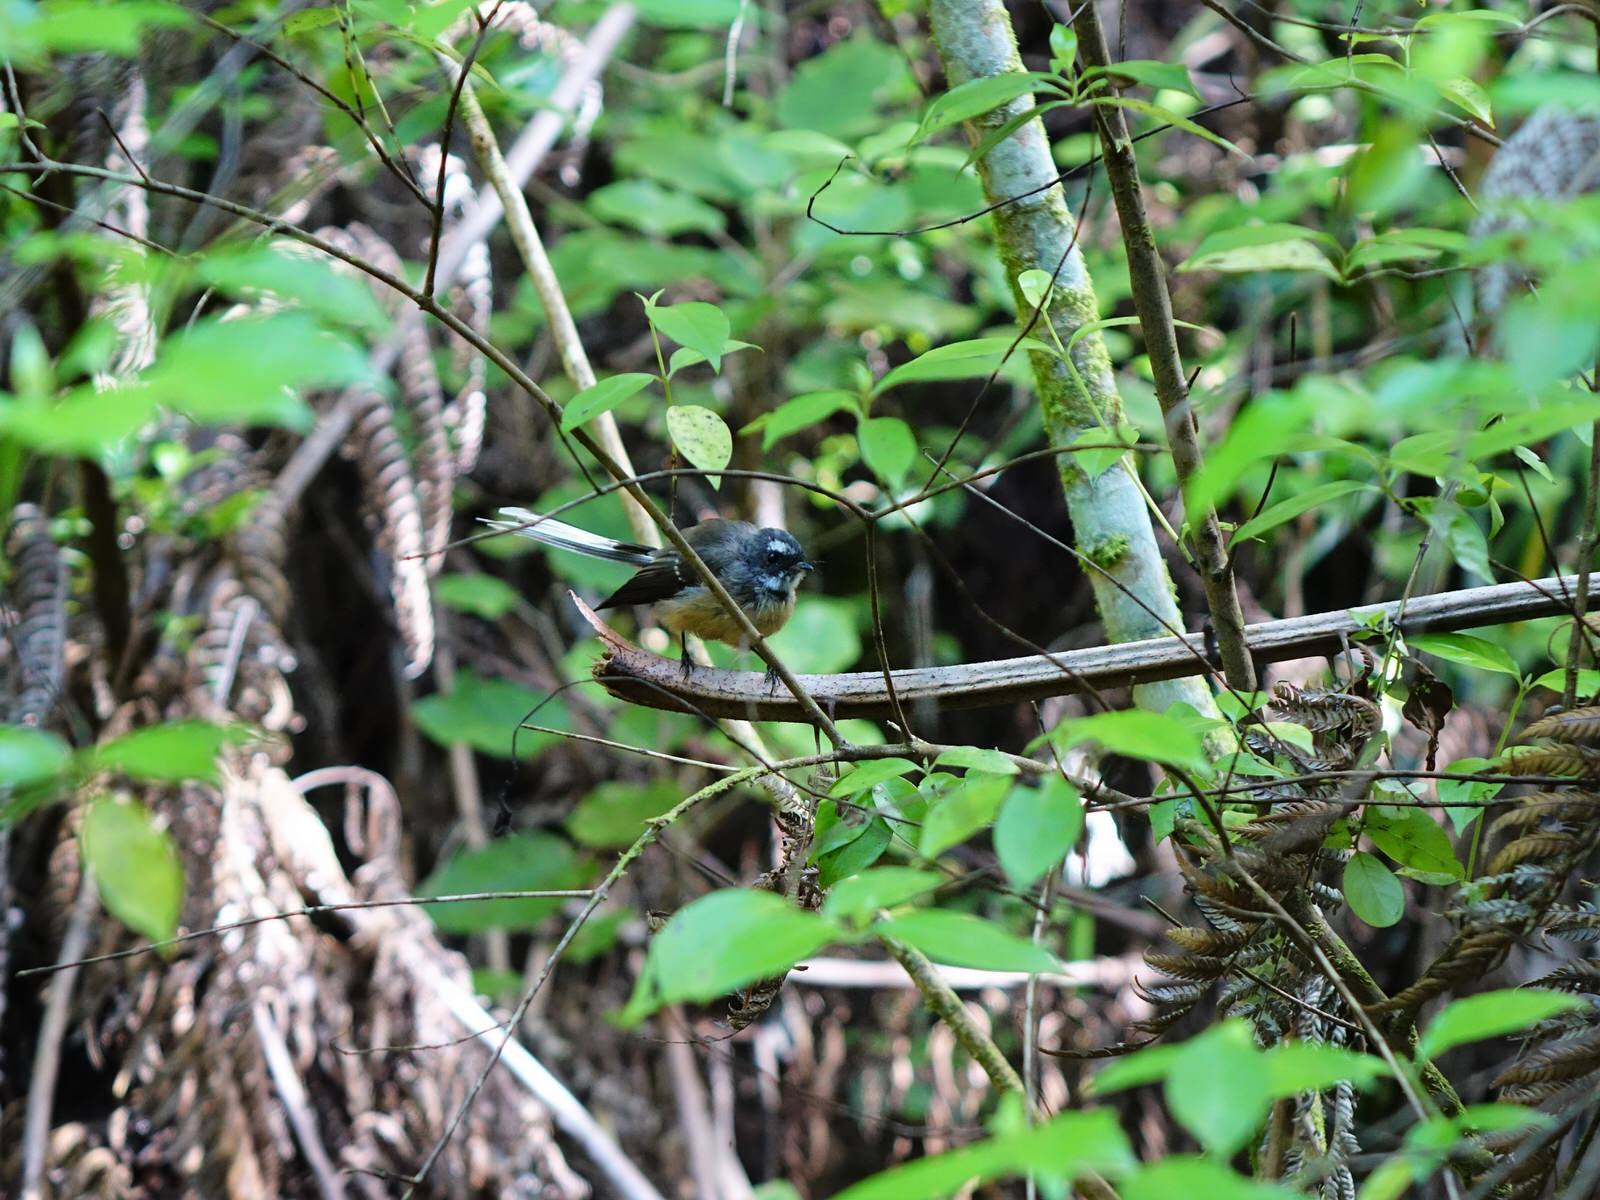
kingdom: Animalia
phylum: Chordata
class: Aves
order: Passeriformes
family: Rhipiduridae
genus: Rhipidura
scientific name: Rhipidura fuliginosa
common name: New zealand fantail
